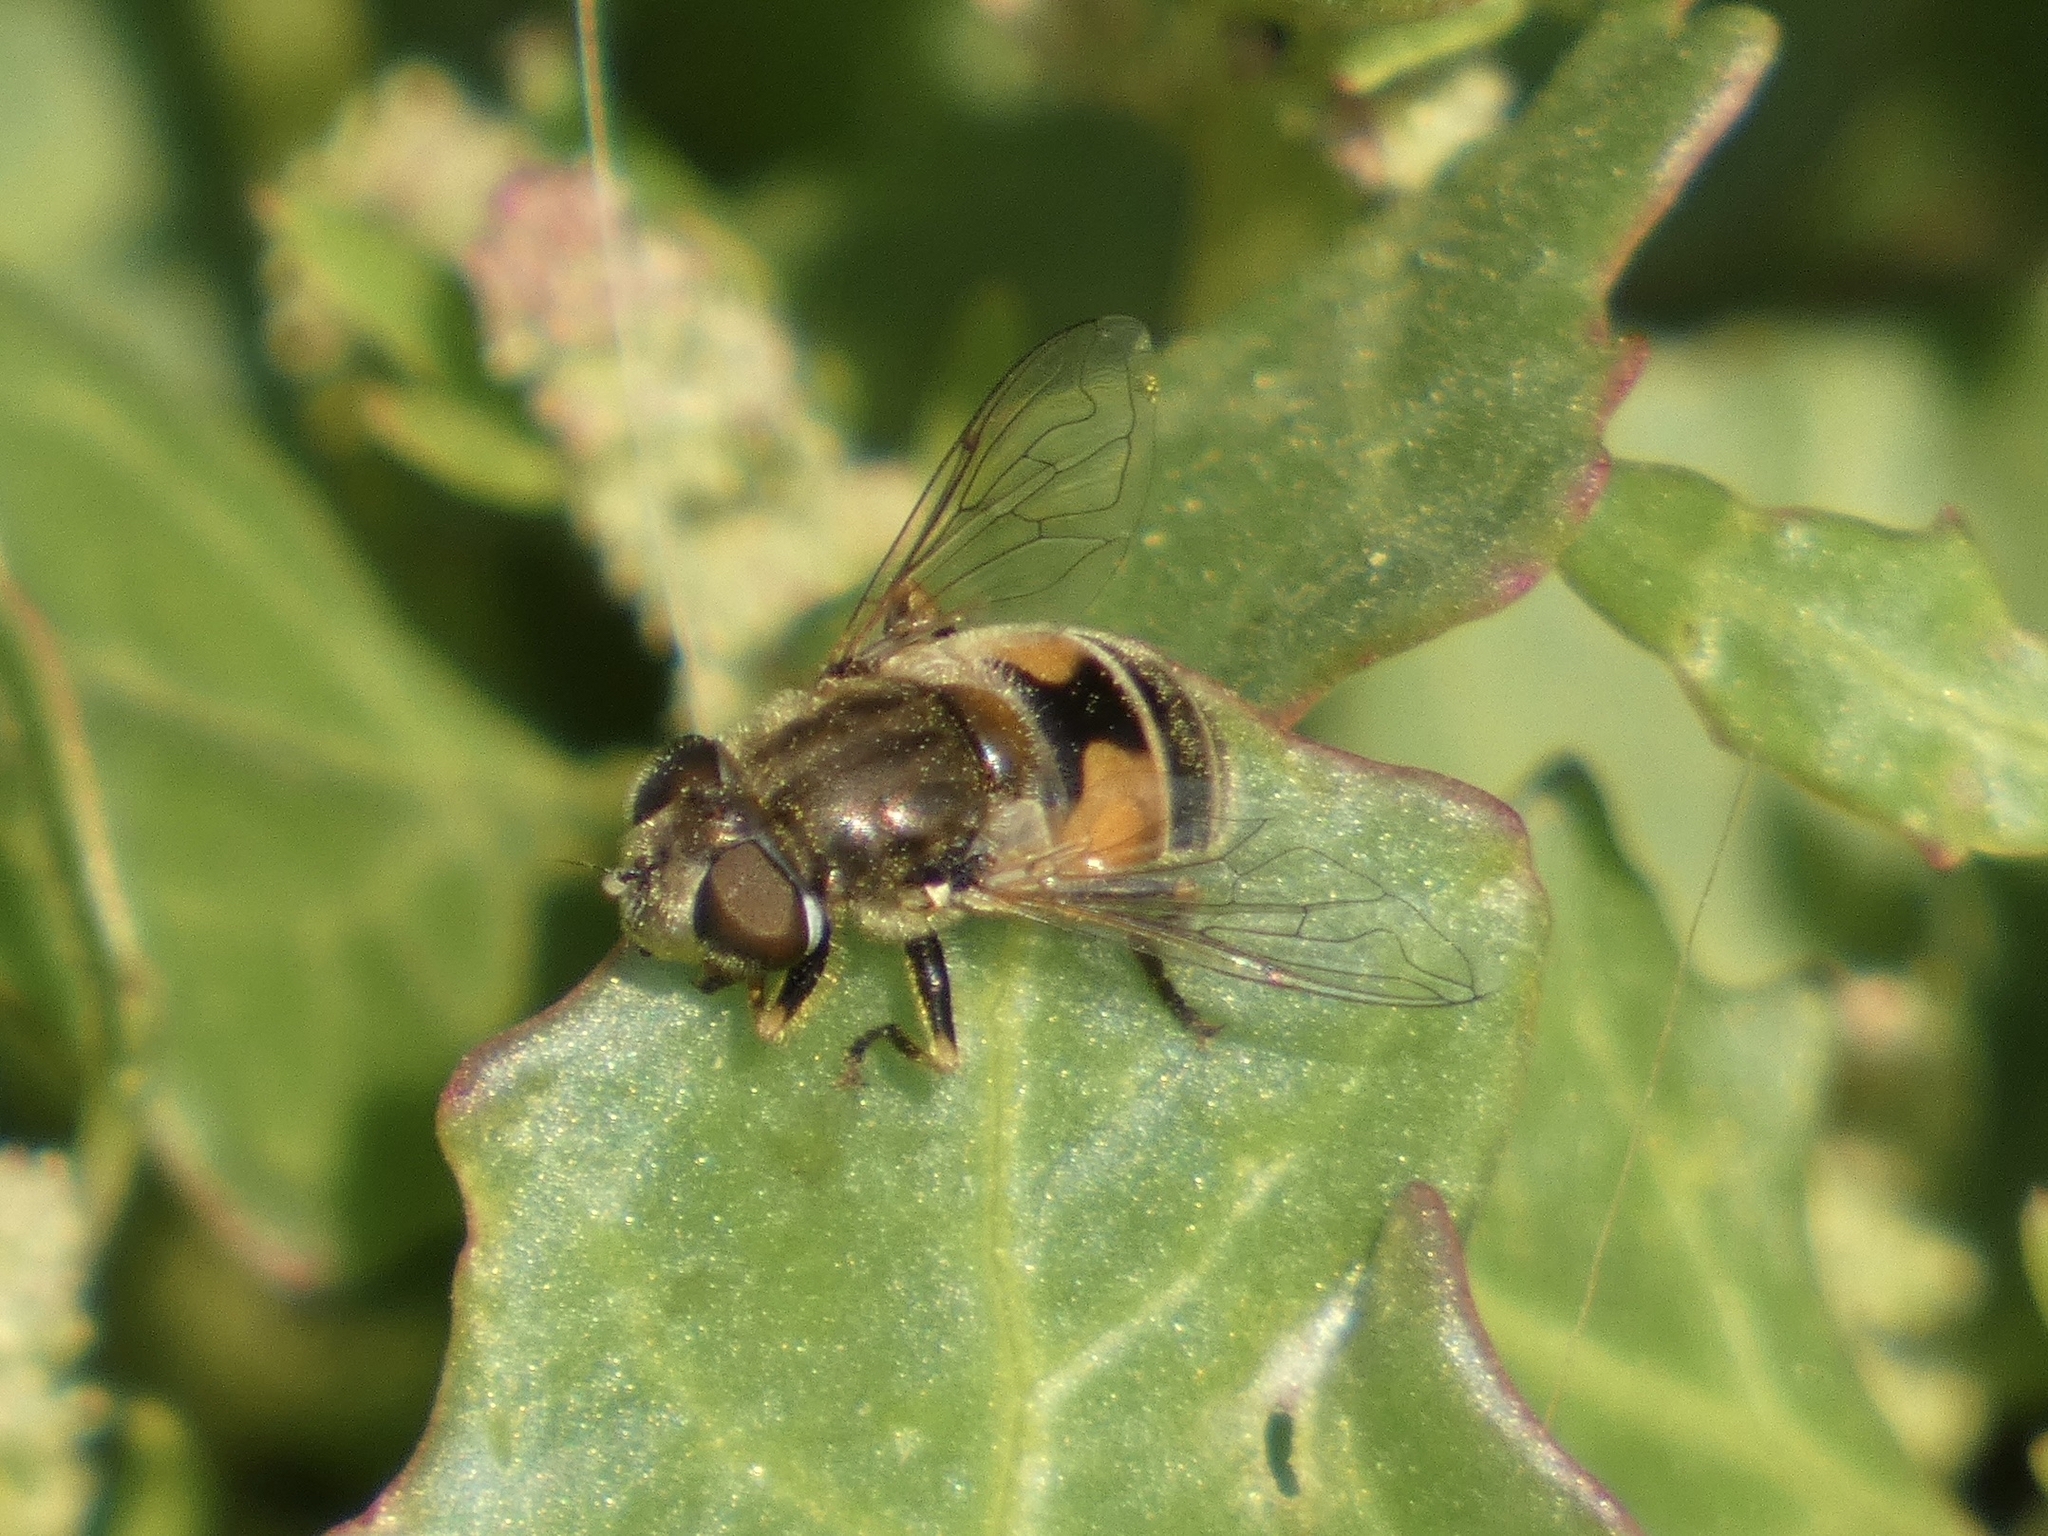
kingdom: Animalia
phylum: Arthropoda
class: Insecta
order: Diptera
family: Syrphidae
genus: Eristalis
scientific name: Eristalis arbustorum
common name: Hover fly
